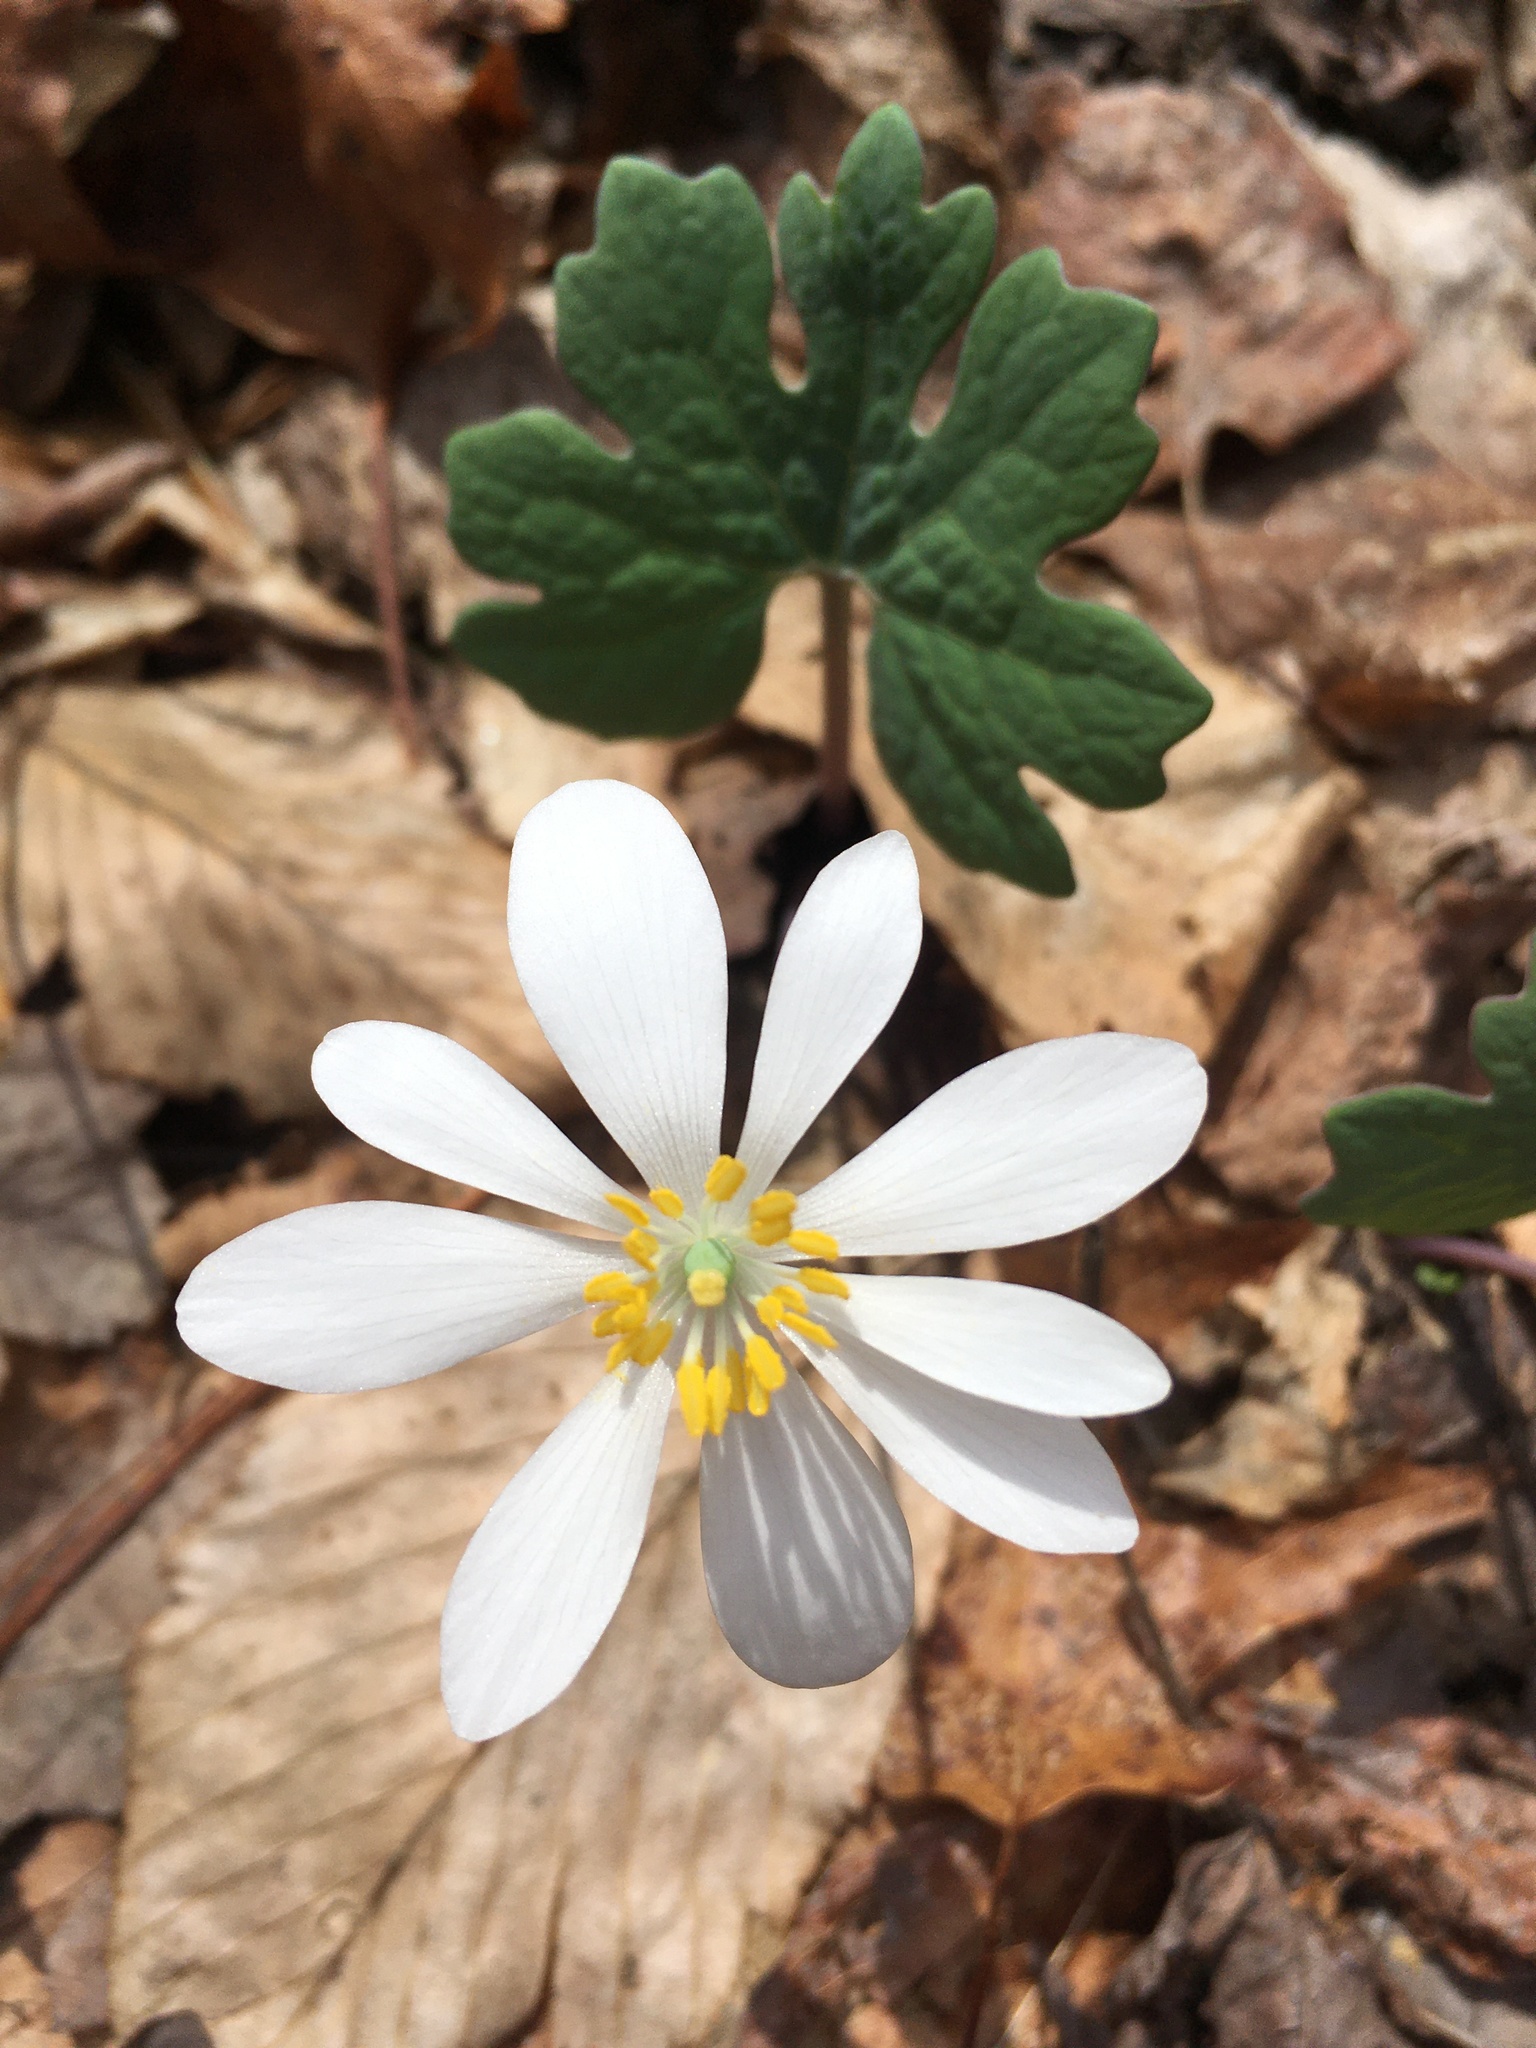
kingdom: Plantae
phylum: Tracheophyta
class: Magnoliopsida
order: Ranunculales
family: Papaveraceae
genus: Sanguinaria
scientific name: Sanguinaria canadensis
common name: Bloodroot
